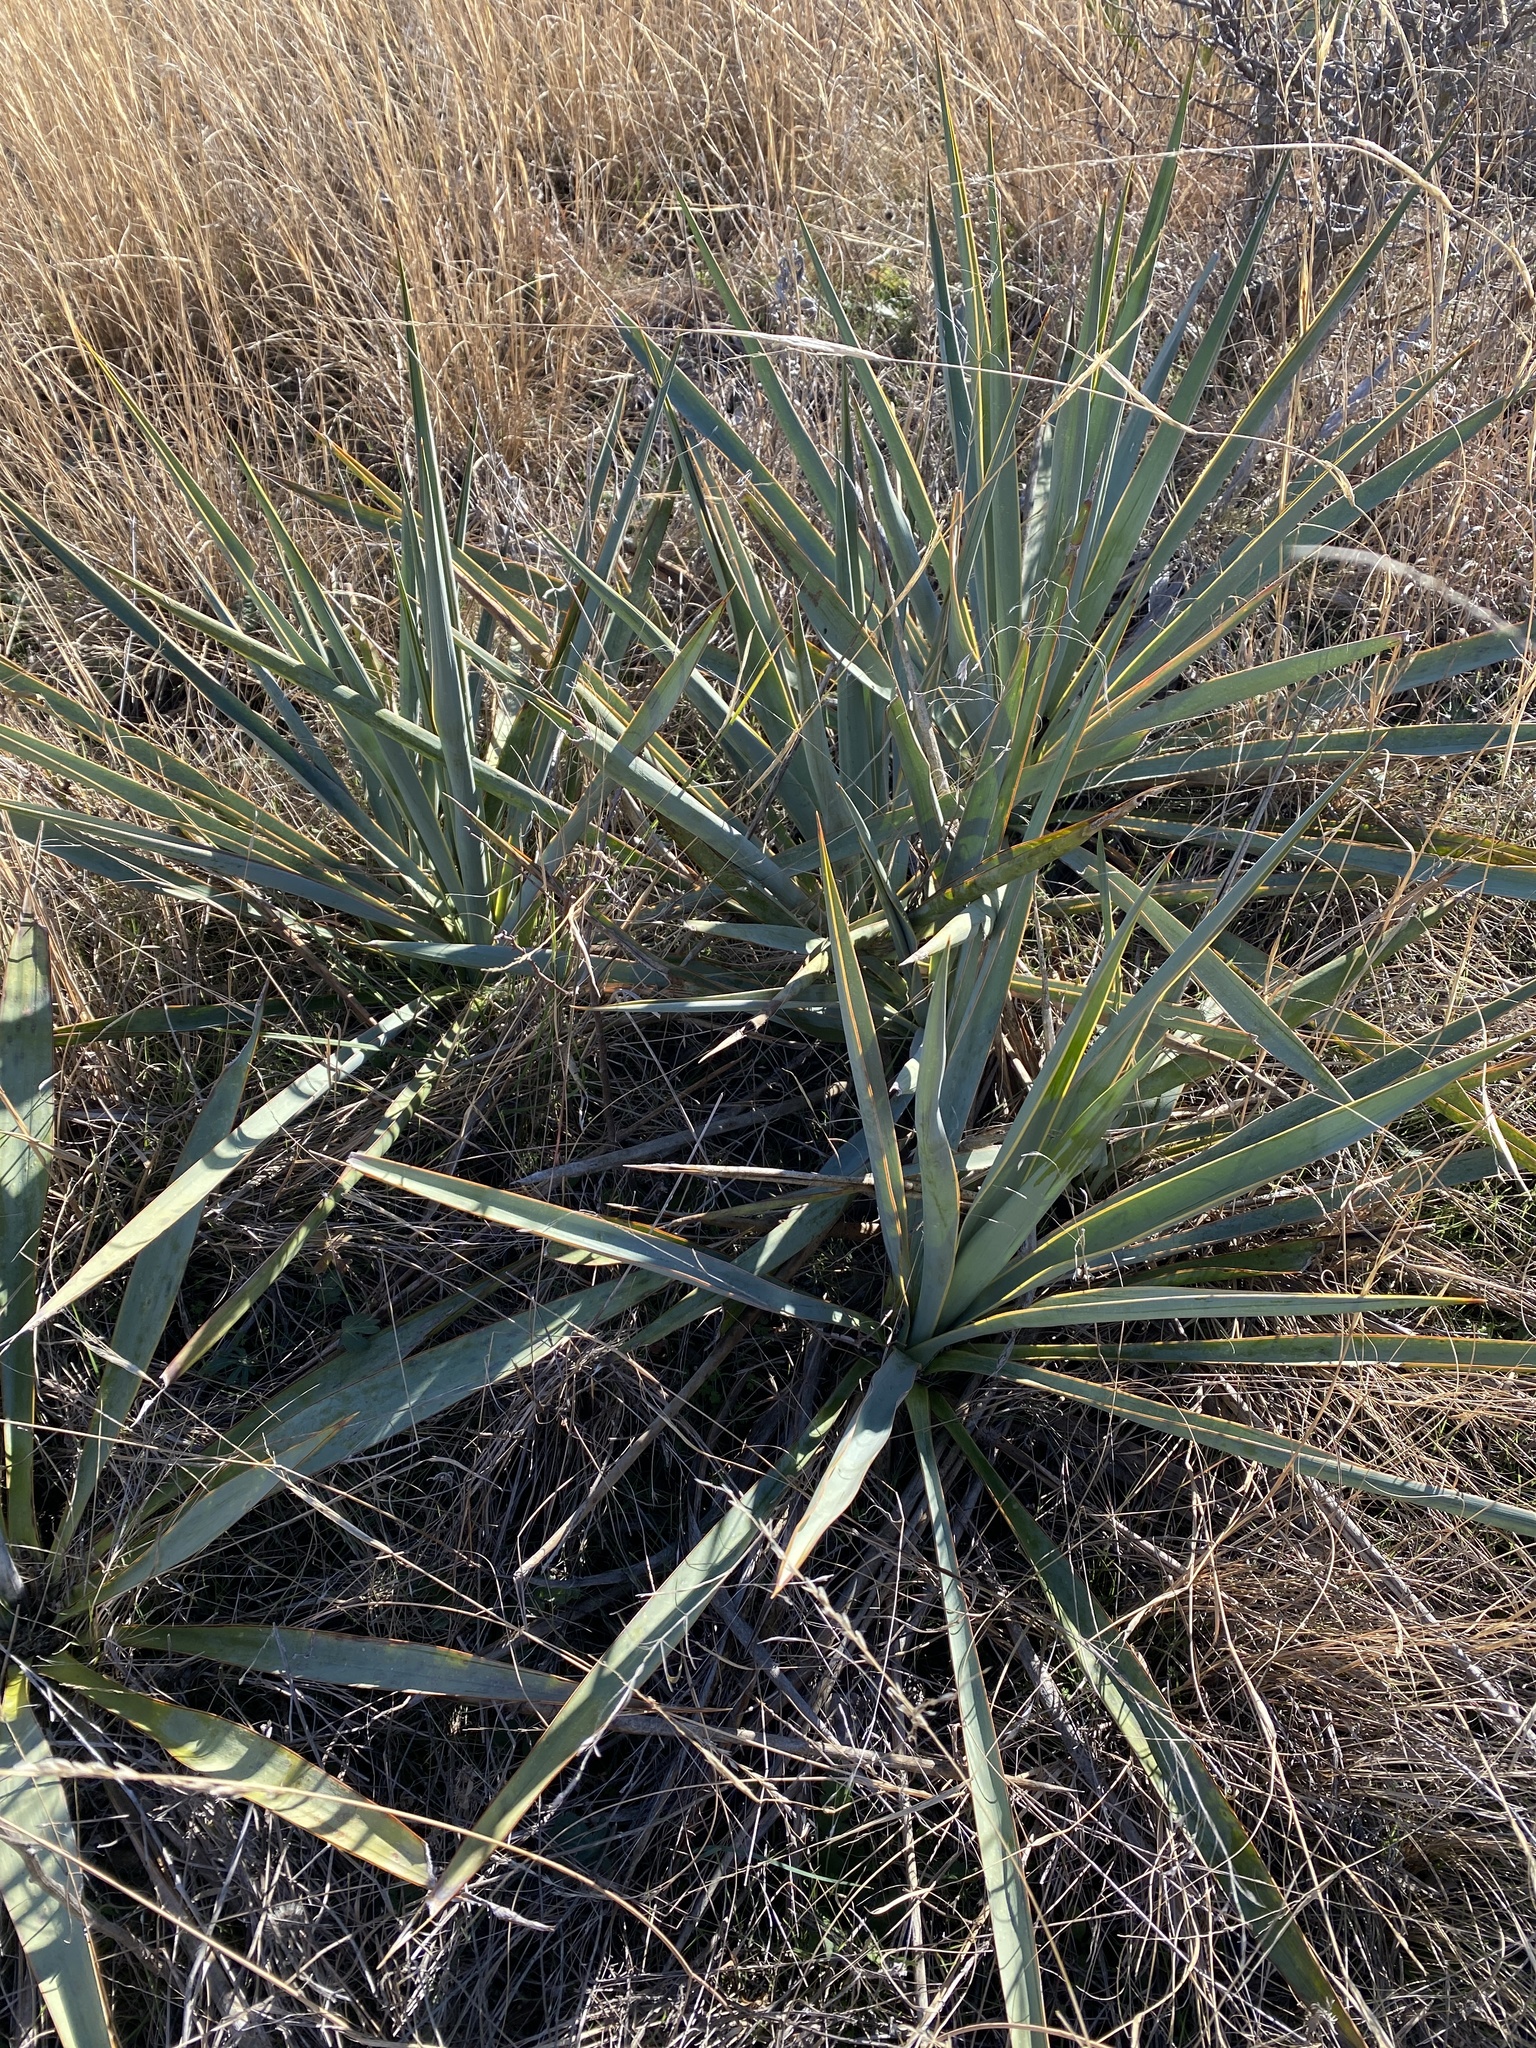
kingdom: Plantae
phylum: Tracheophyta
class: Liliopsida
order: Asparagales
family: Asparagaceae
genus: Yucca
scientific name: Yucca pallida
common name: Pale leaf yucca
